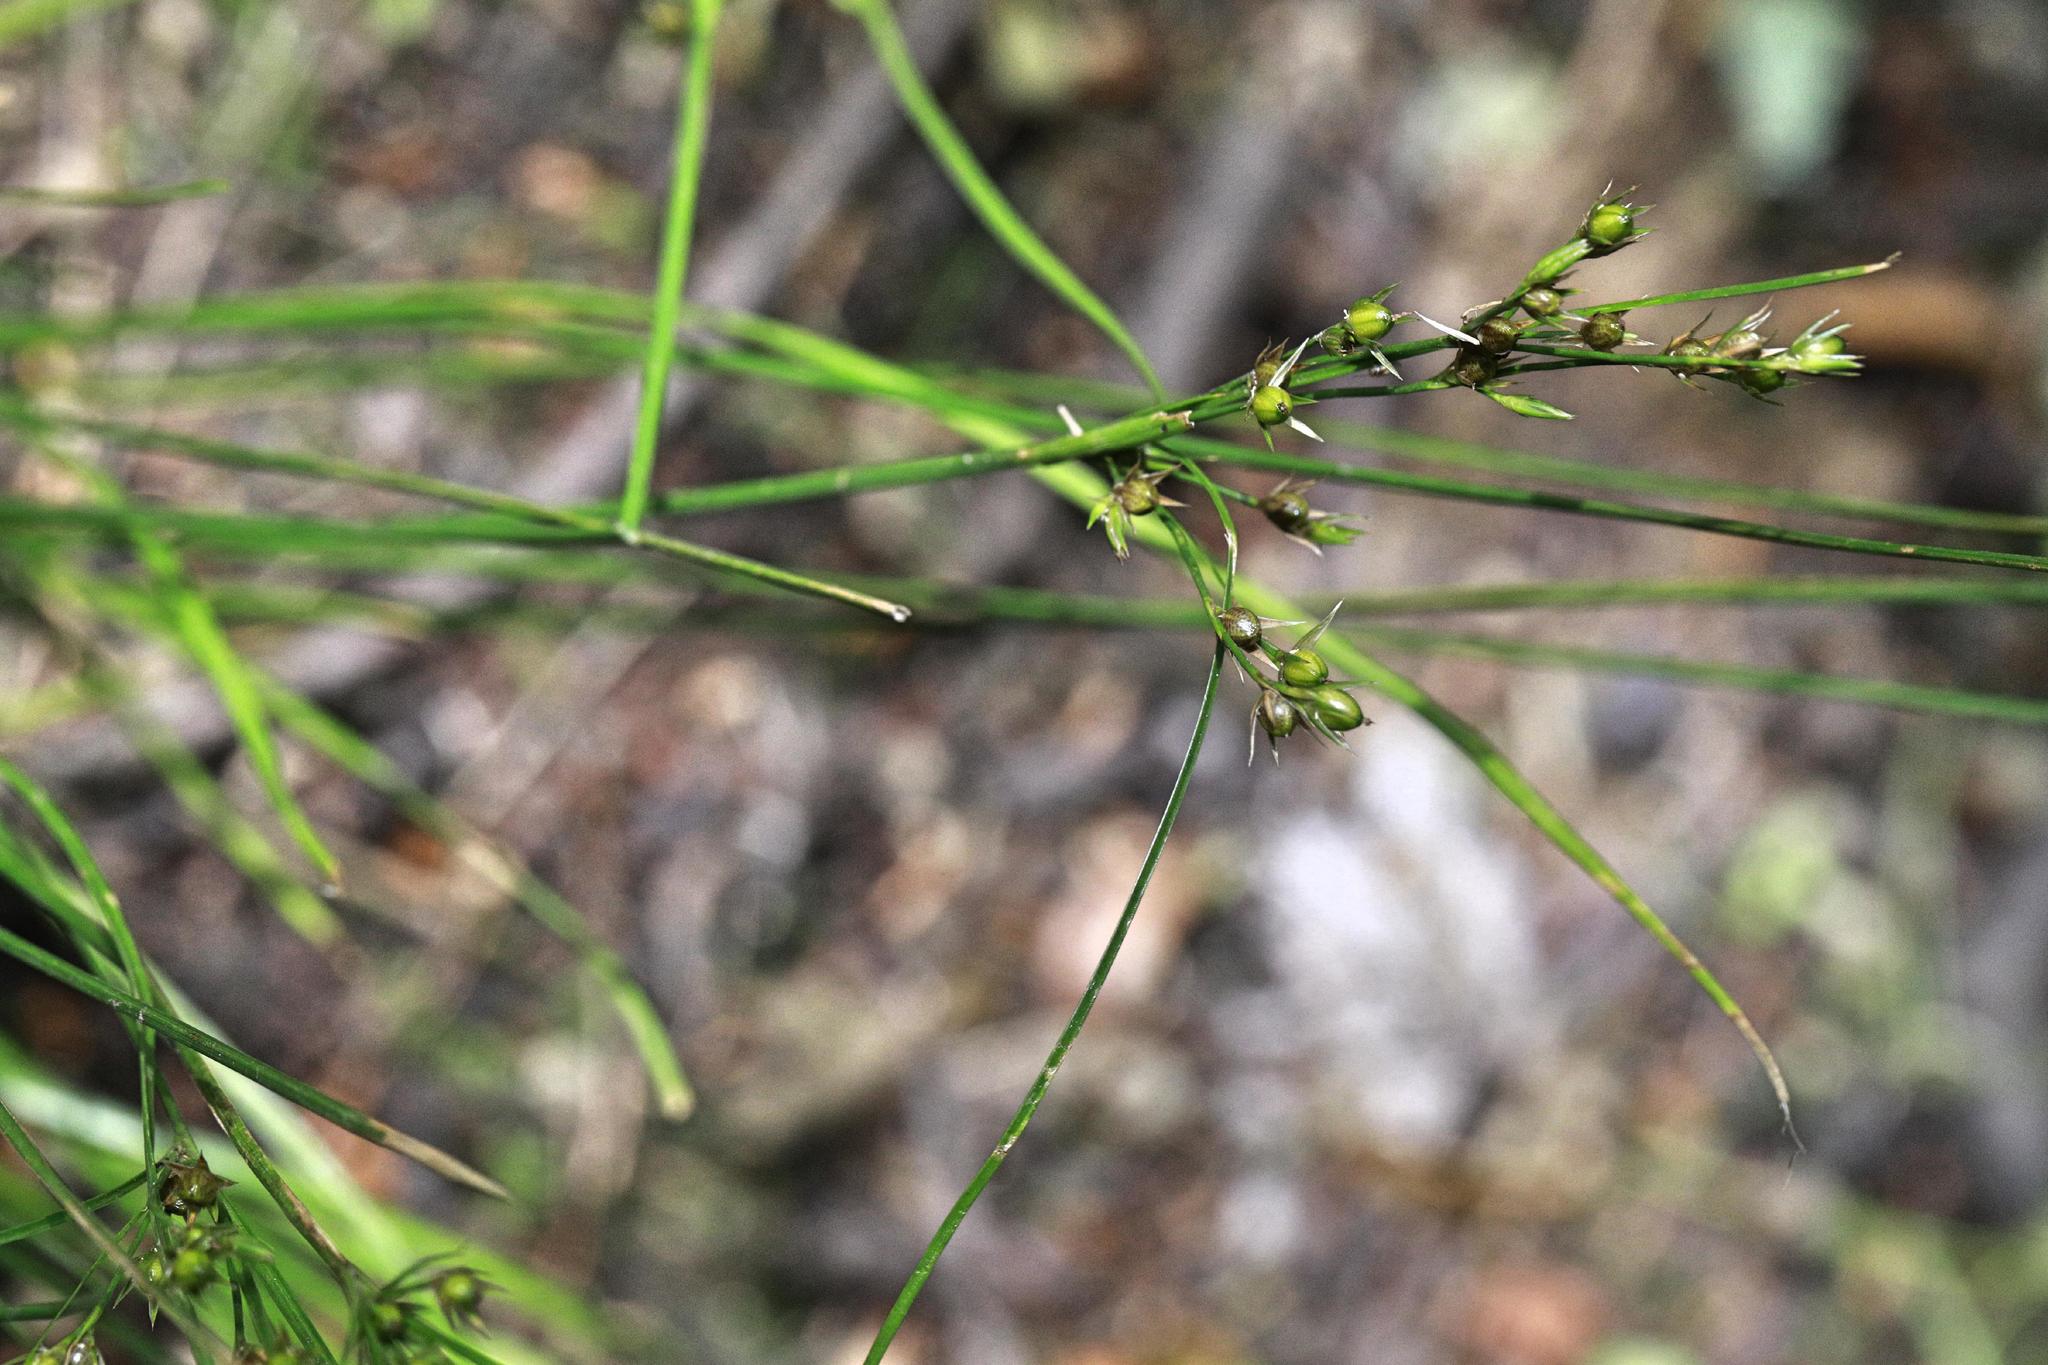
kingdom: Plantae
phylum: Tracheophyta
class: Liliopsida
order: Poales
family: Juncaceae
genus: Juncus
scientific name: Juncus tenuis
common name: Slender rush
